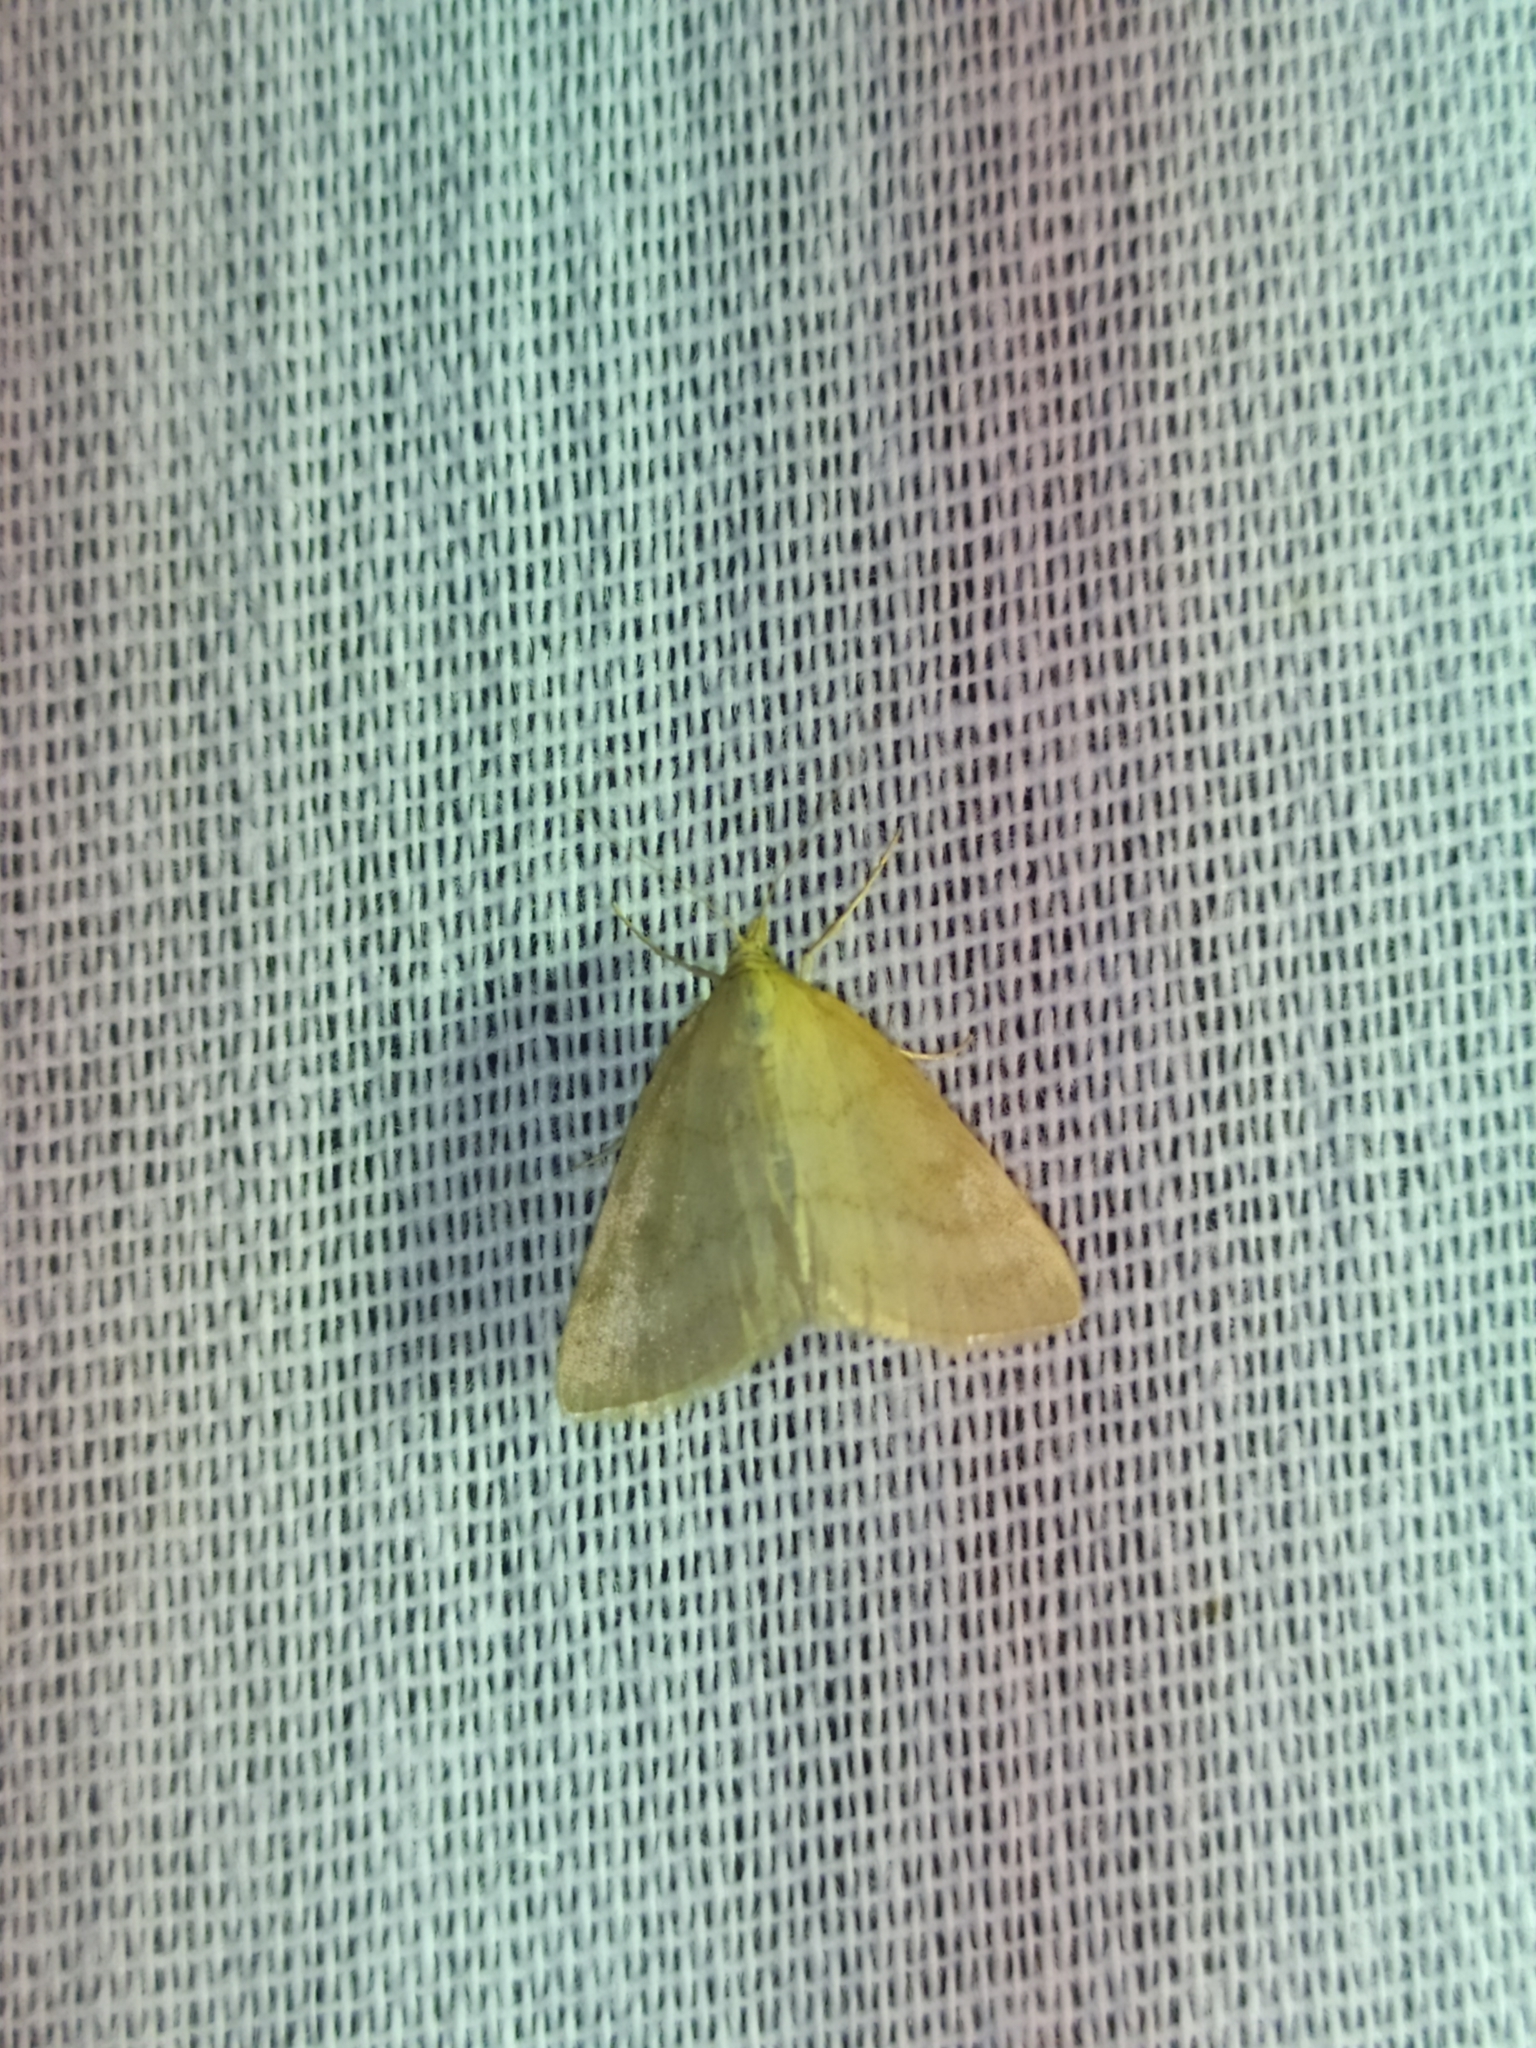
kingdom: Animalia
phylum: Arthropoda
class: Insecta
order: Lepidoptera
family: Crambidae
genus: Psammotis
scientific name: Psammotis viminalis
